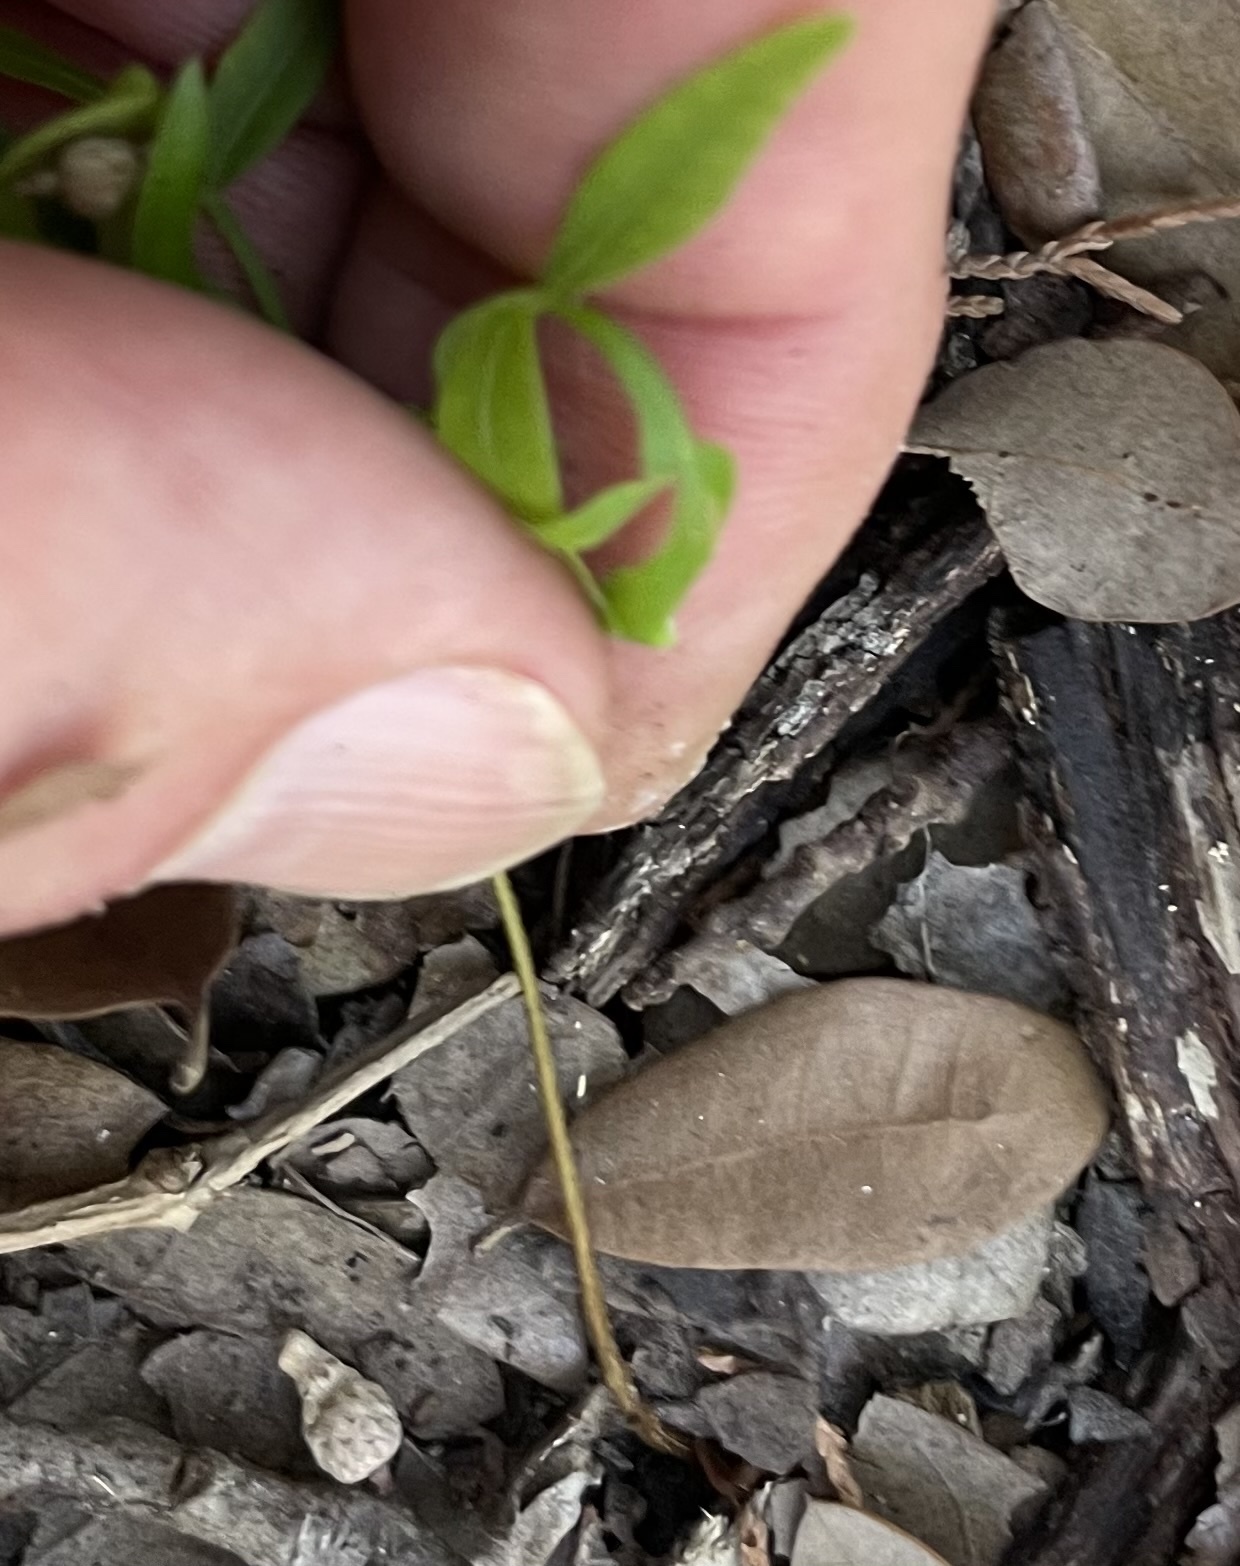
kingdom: Plantae
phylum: Tracheophyta
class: Magnoliopsida
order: Sapindales
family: Anacardiaceae
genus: Pistacia
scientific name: Pistacia chinensis
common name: Chinese pistache
